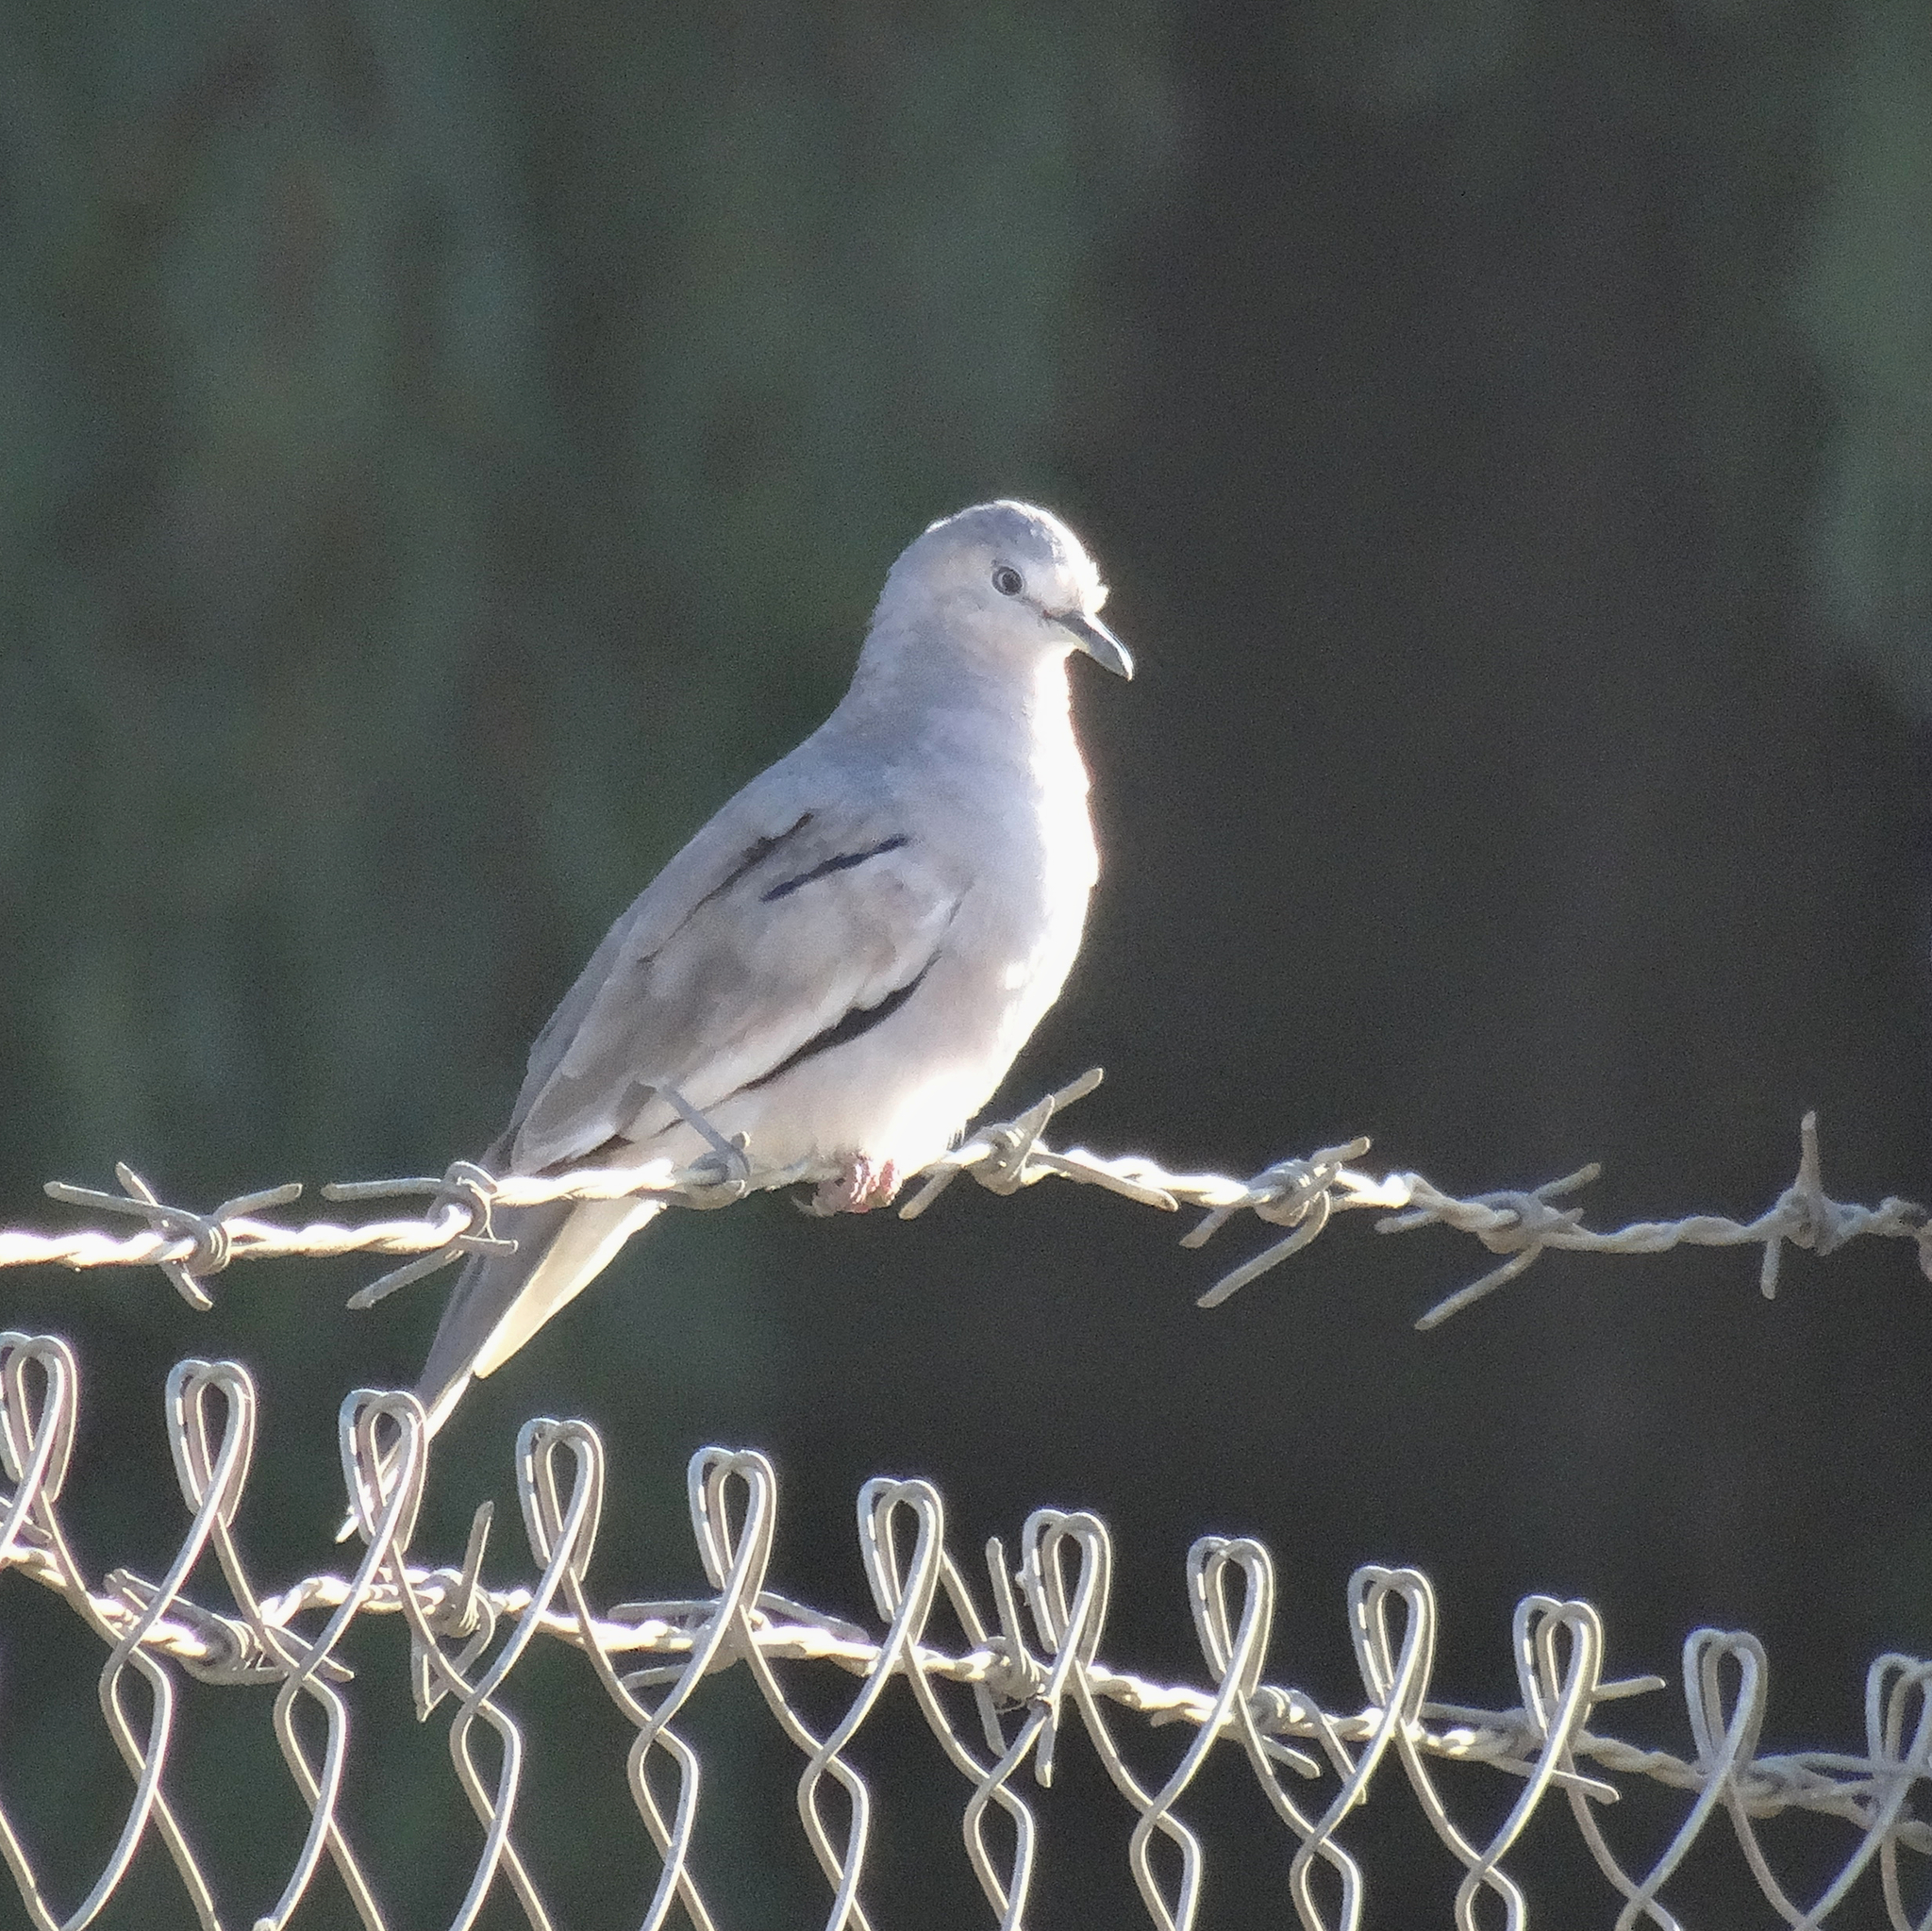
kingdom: Animalia
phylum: Chordata
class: Aves
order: Columbiformes
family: Columbidae
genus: Columbina
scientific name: Columbina picui
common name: Picui ground dove
